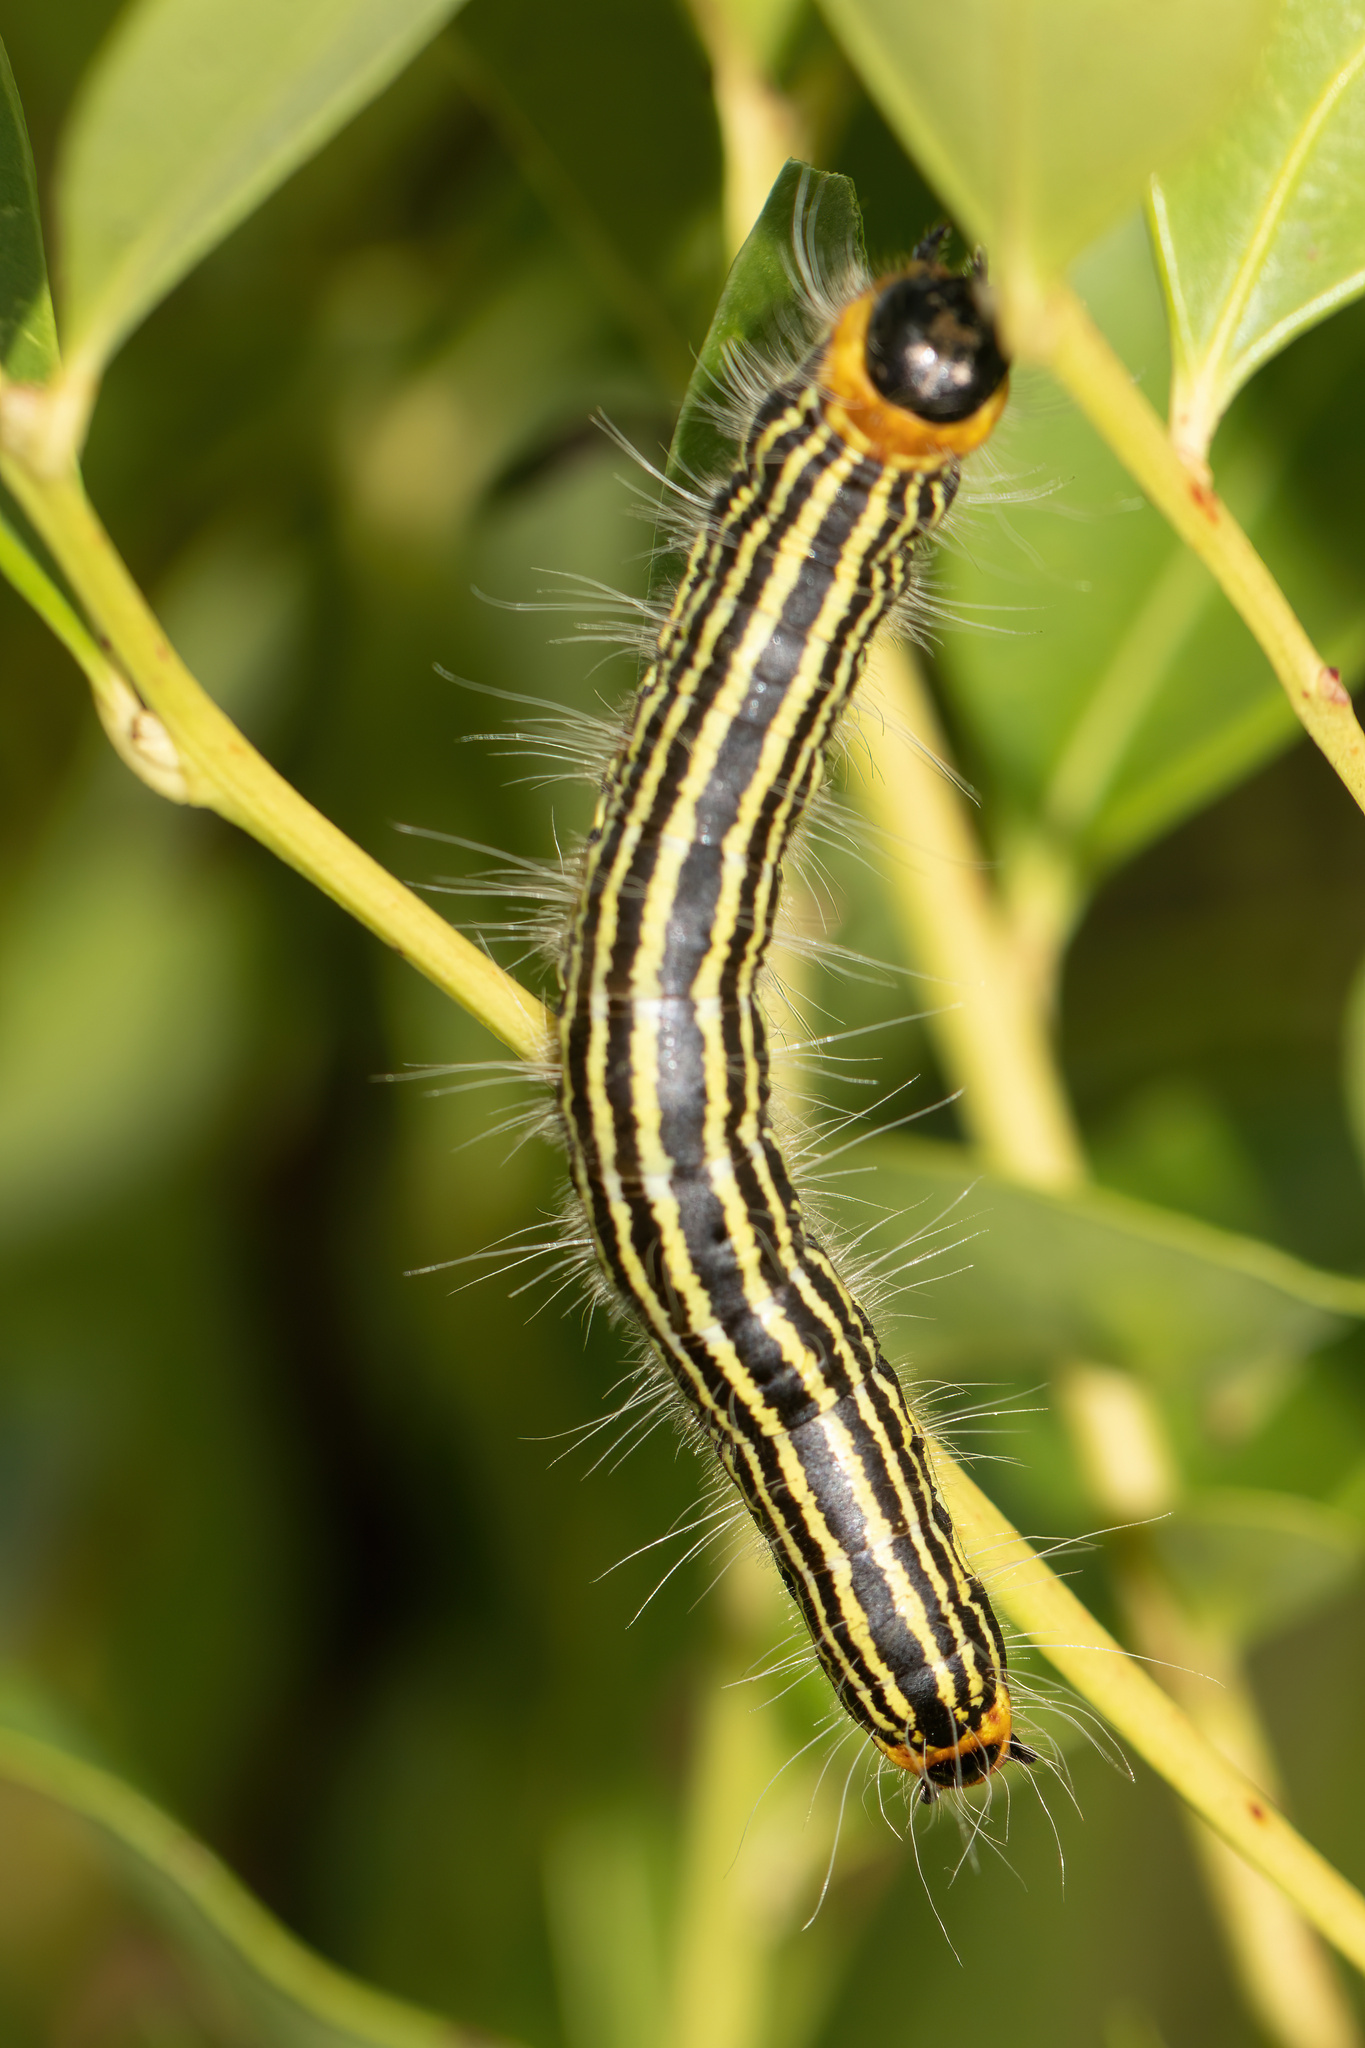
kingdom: Animalia
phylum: Arthropoda
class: Insecta
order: Lepidoptera
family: Notodontidae
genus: Datana
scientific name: Datana ministra
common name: Yellow-necked caterpillar moth
